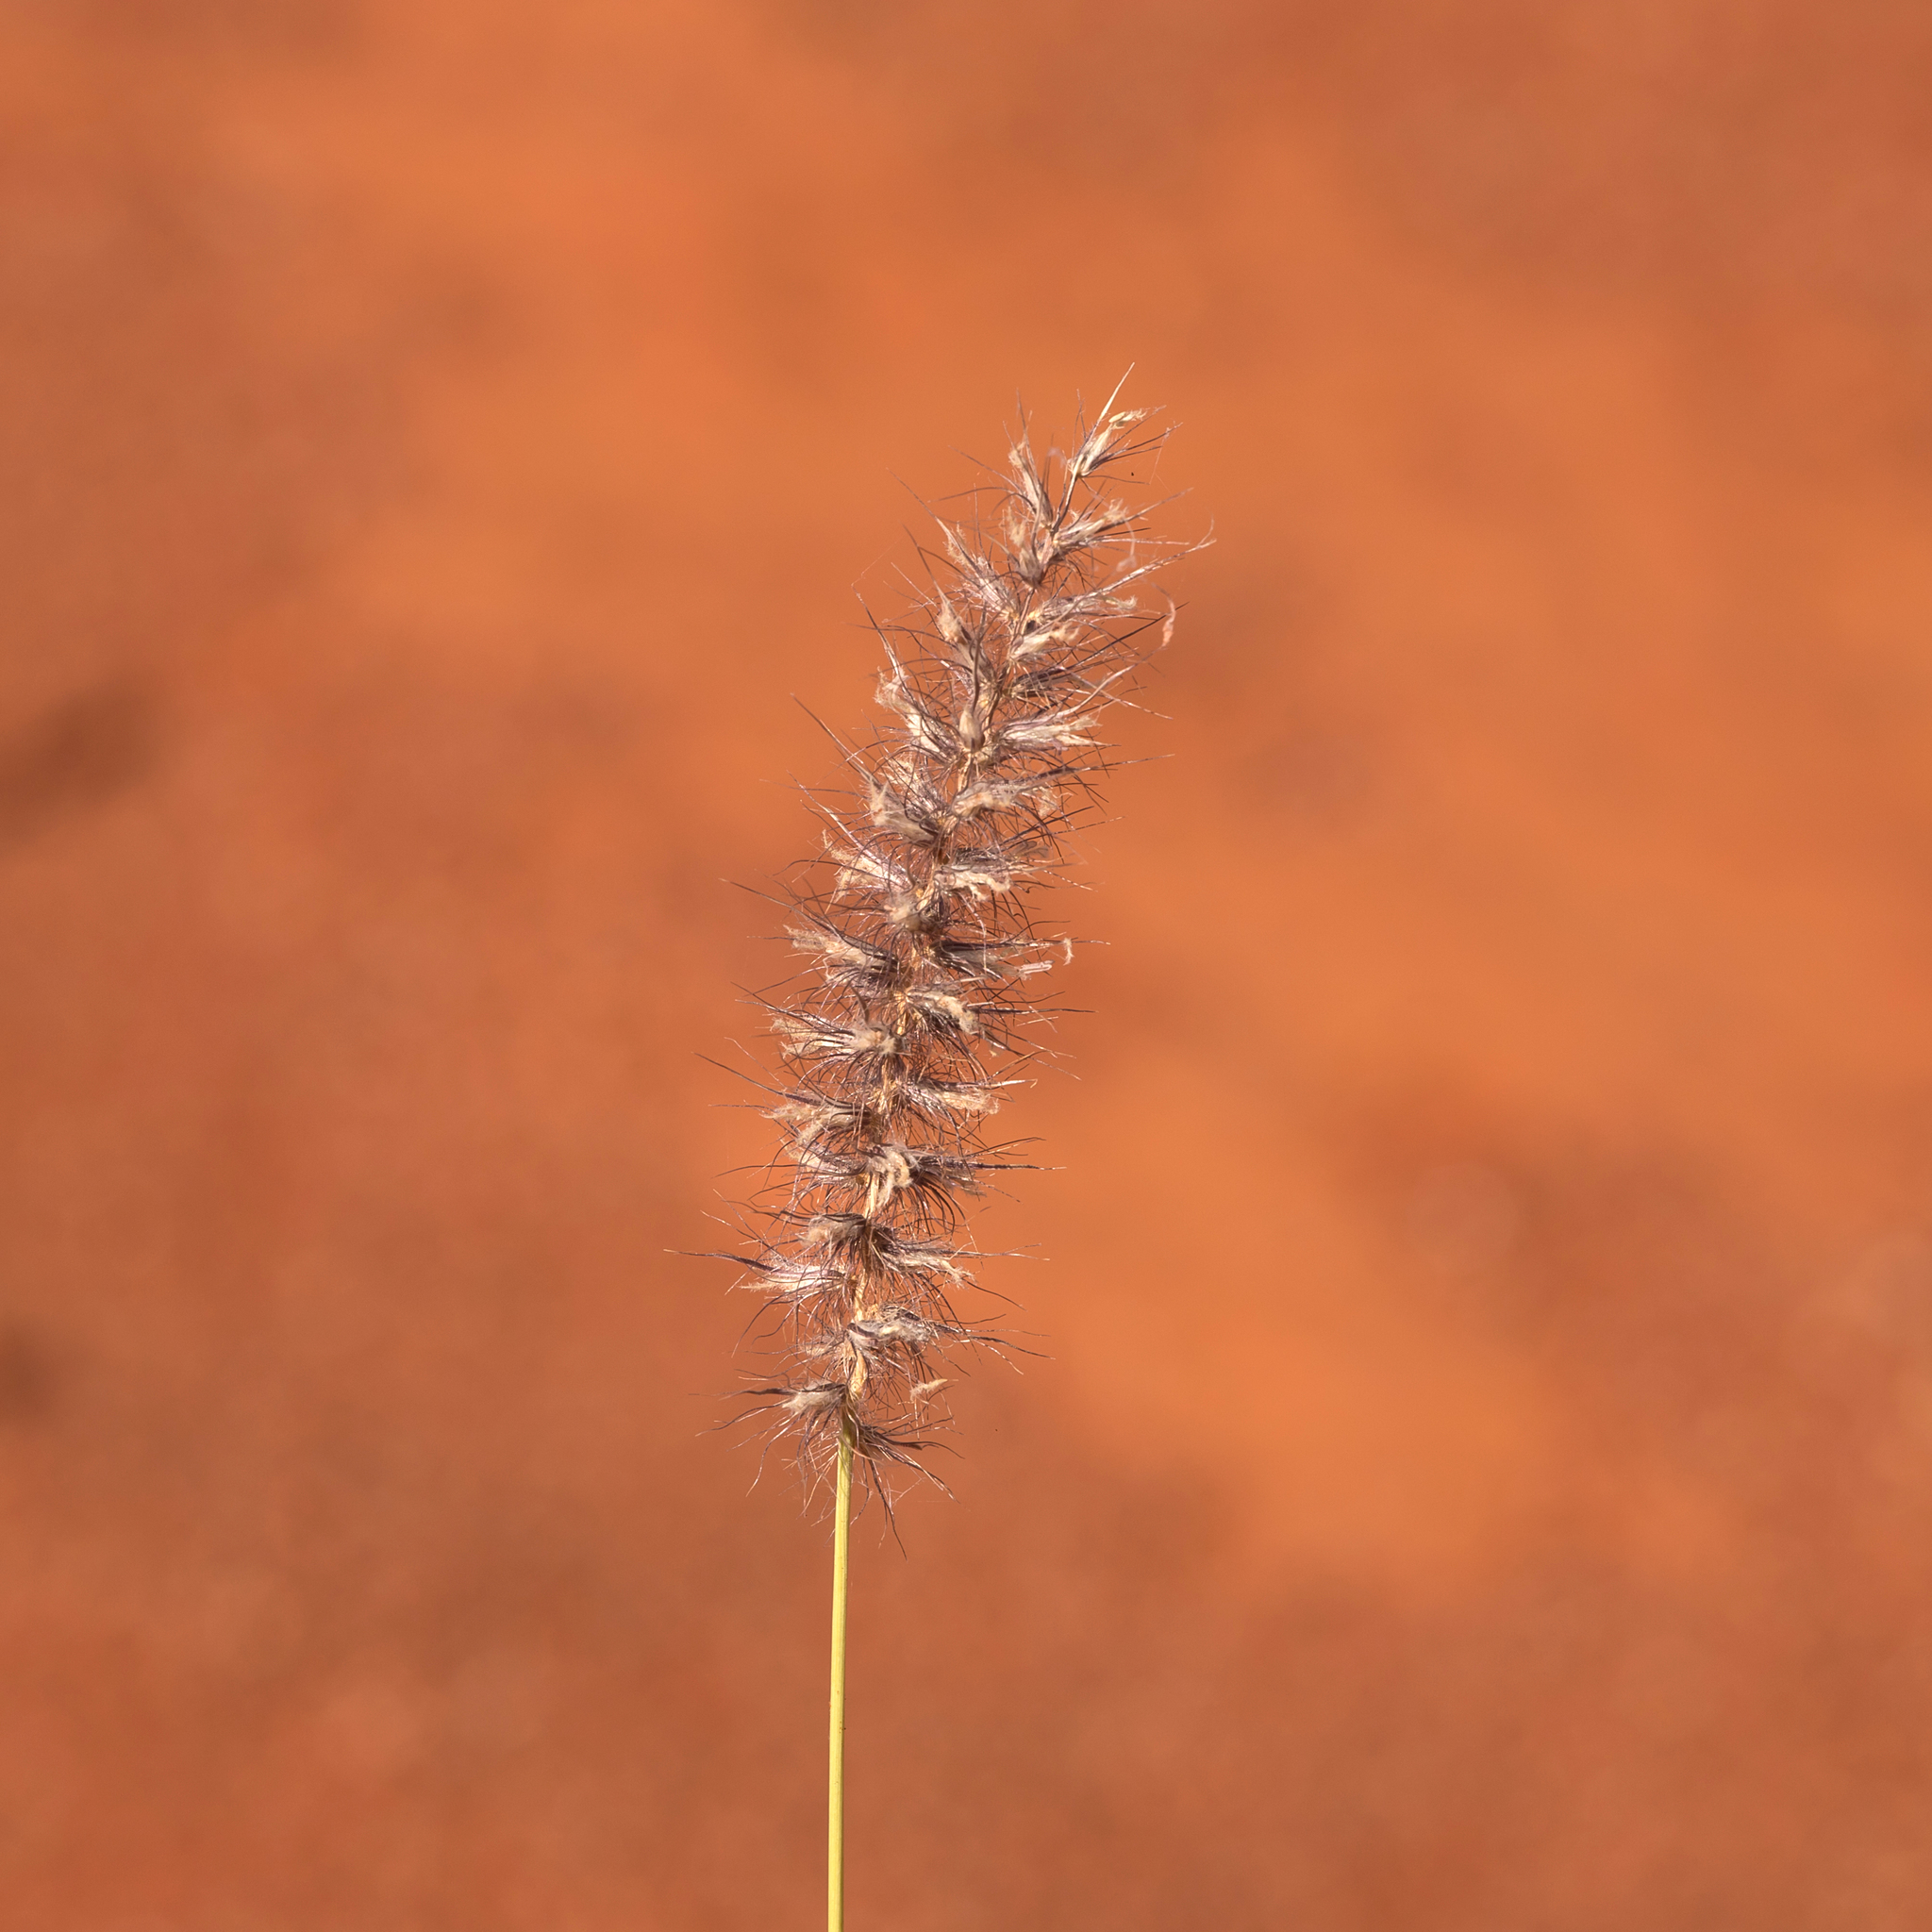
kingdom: Plantae
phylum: Tracheophyta
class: Liliopsida
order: Poales
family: Poaceae
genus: Cenchrus
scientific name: Cenchrus ciliaris
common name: Buffelgrass
